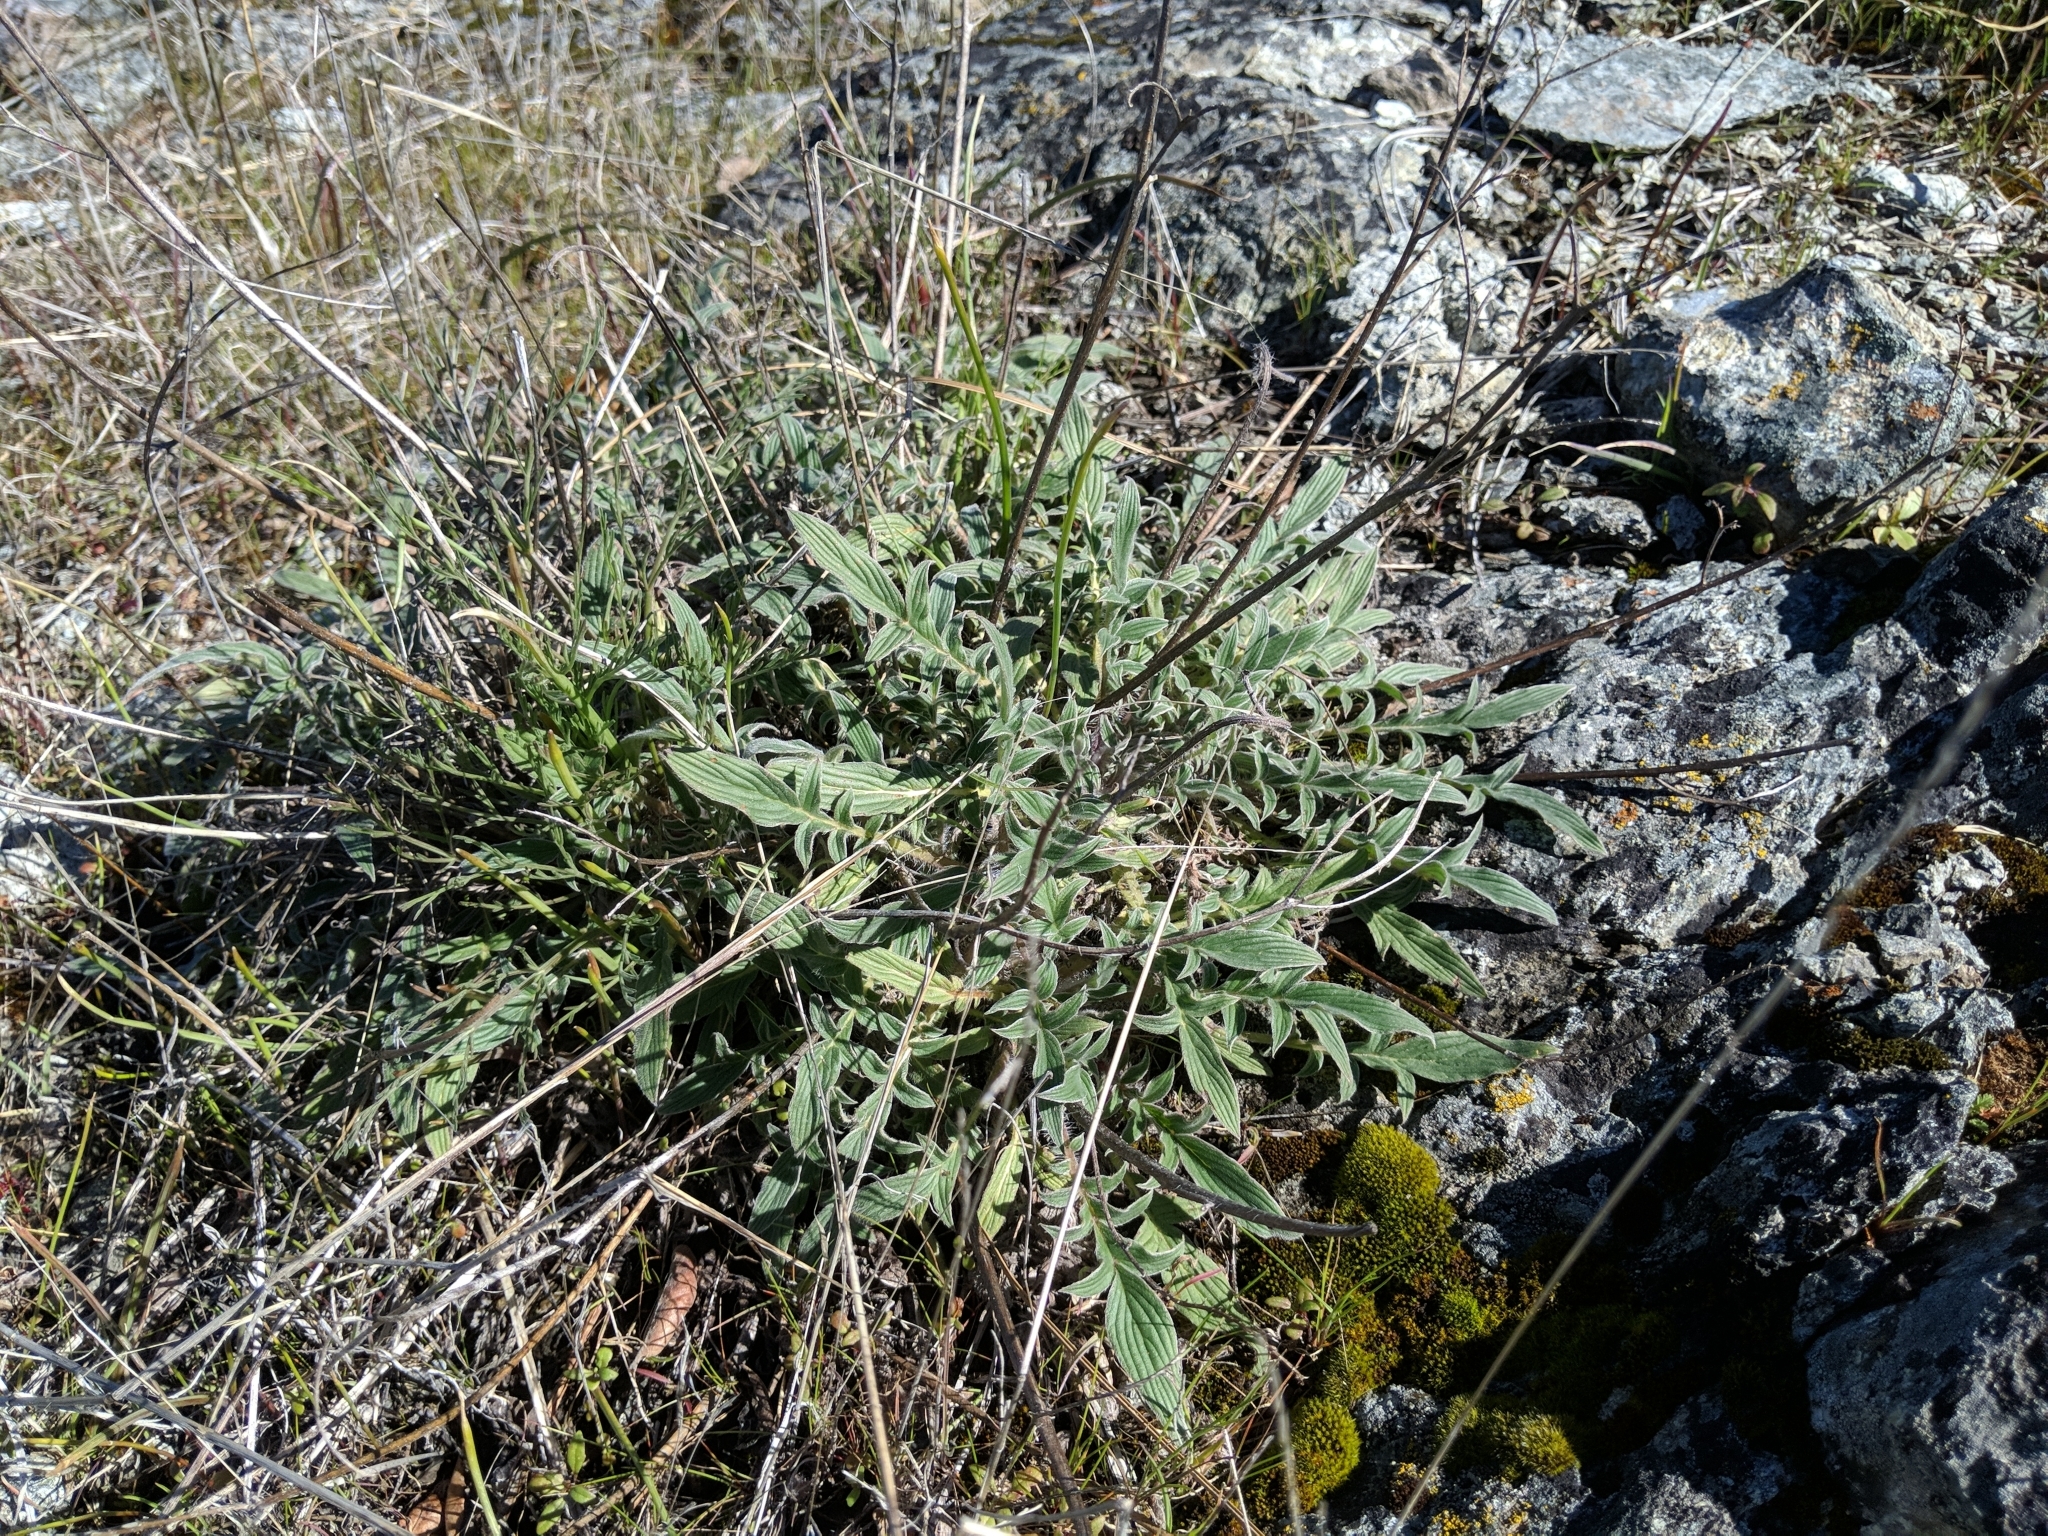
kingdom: Plantae
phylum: Tracheophyta
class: Magnoliopsida
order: Boraginales
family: Hydrophyllaceae
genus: Phacelia
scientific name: Phacelia imbricata
